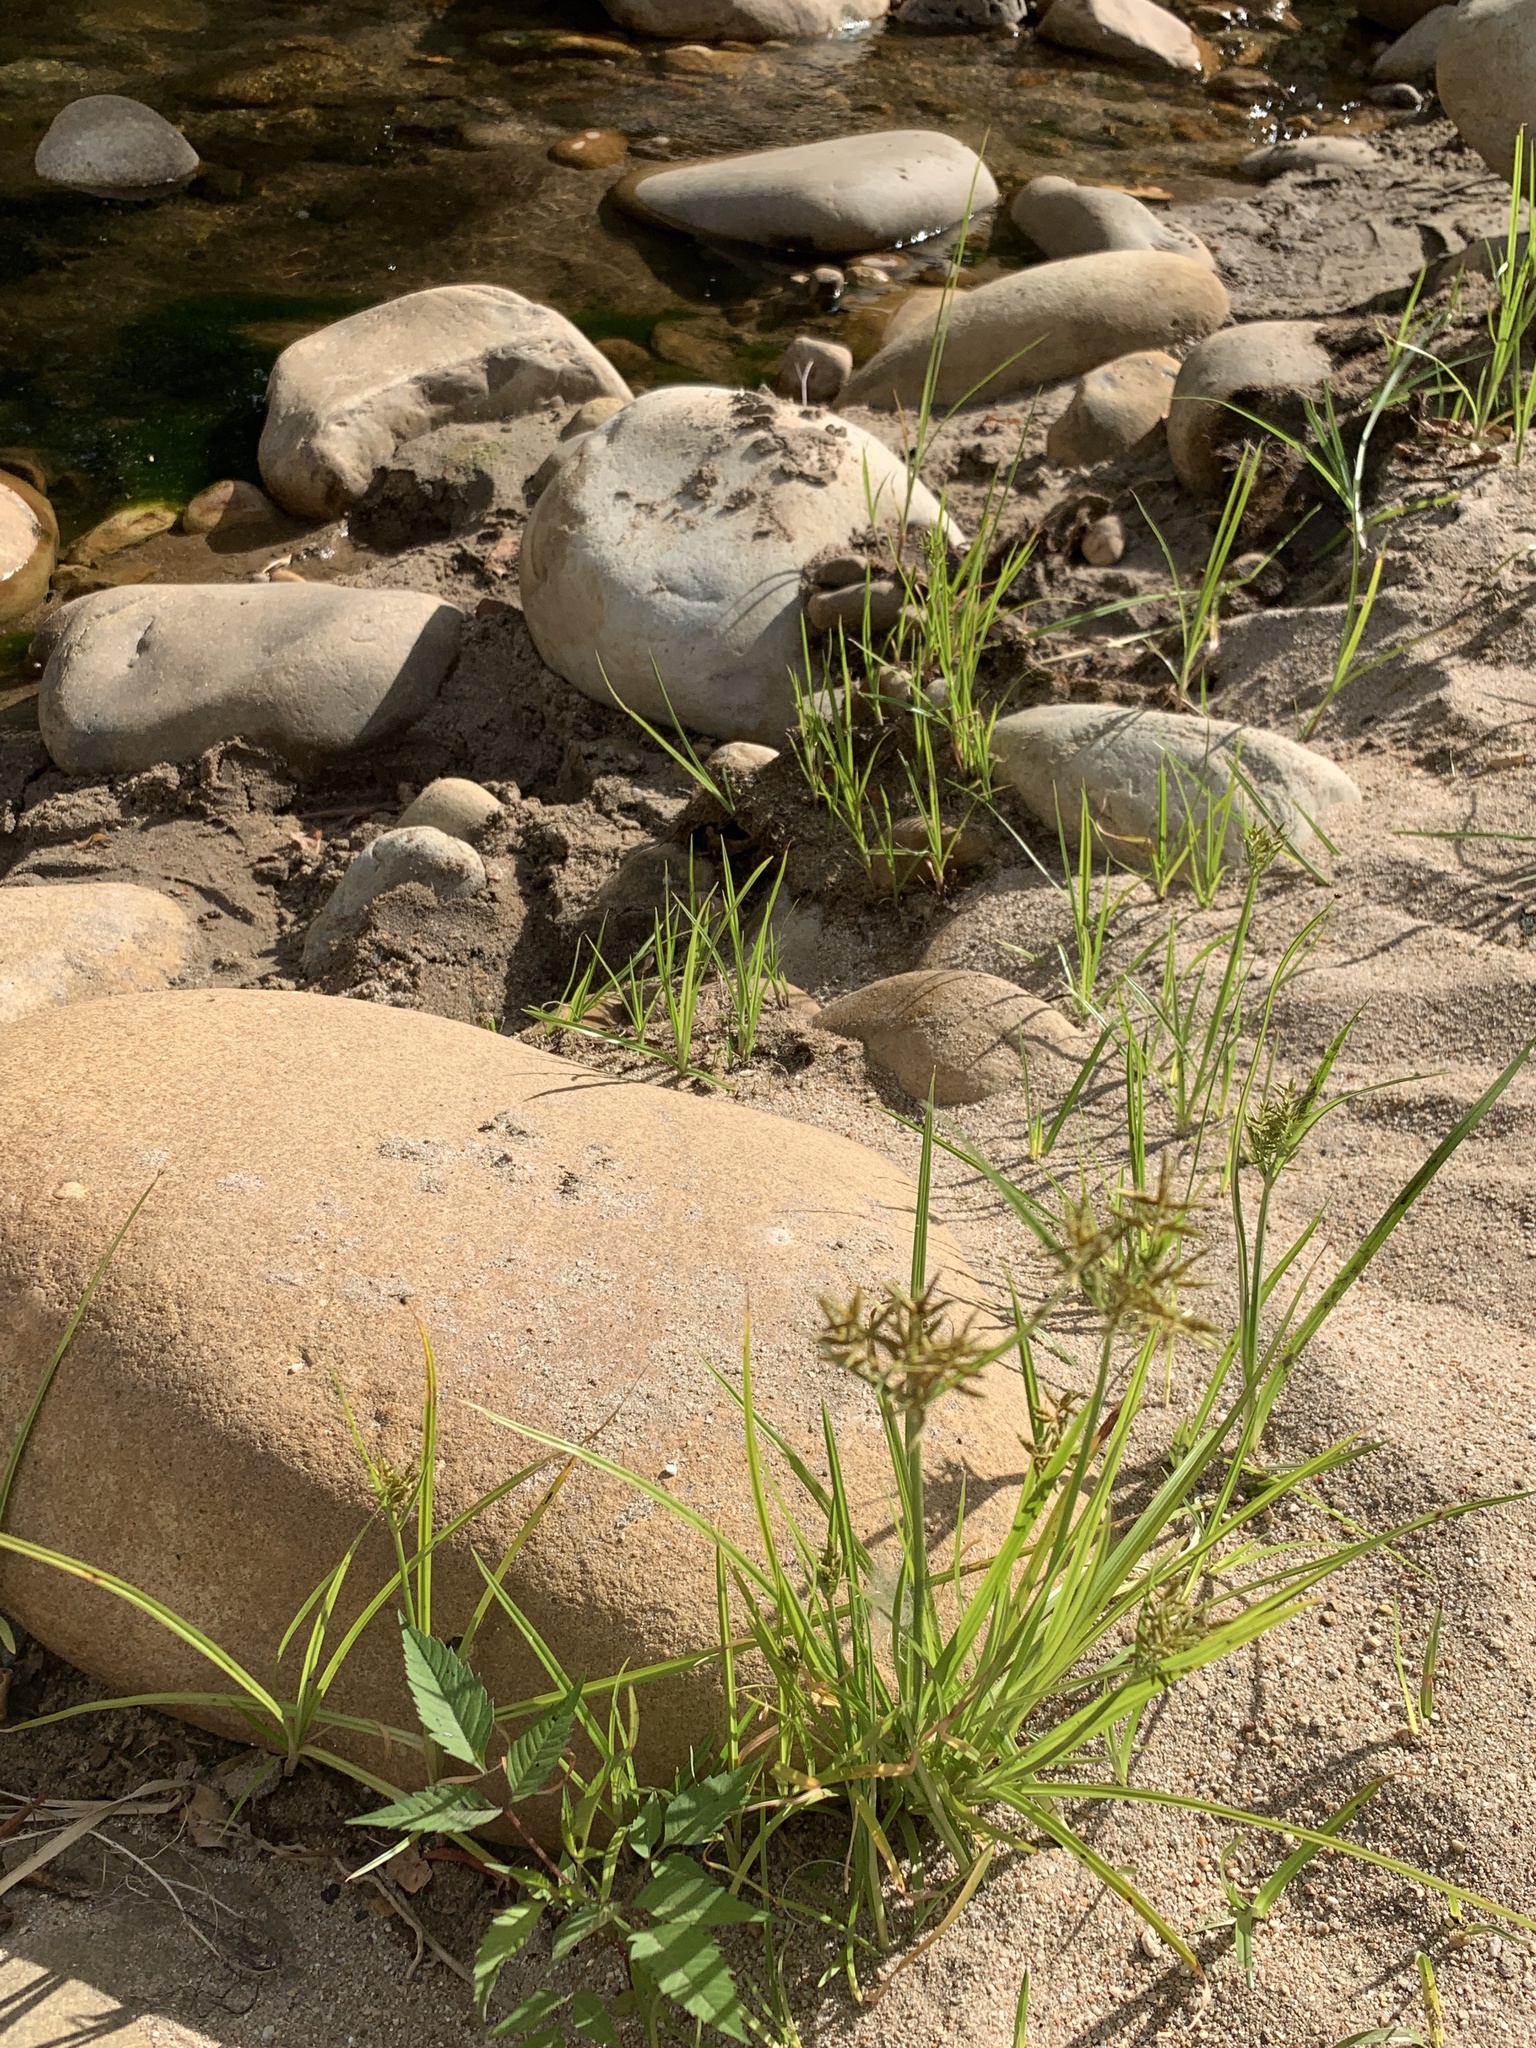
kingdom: Plantae
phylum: Tracheophyta
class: Liliopsida
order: Poales
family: Cyperaceae
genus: Cyperus
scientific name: Cyperus esculentus
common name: Yellow nutsedge
